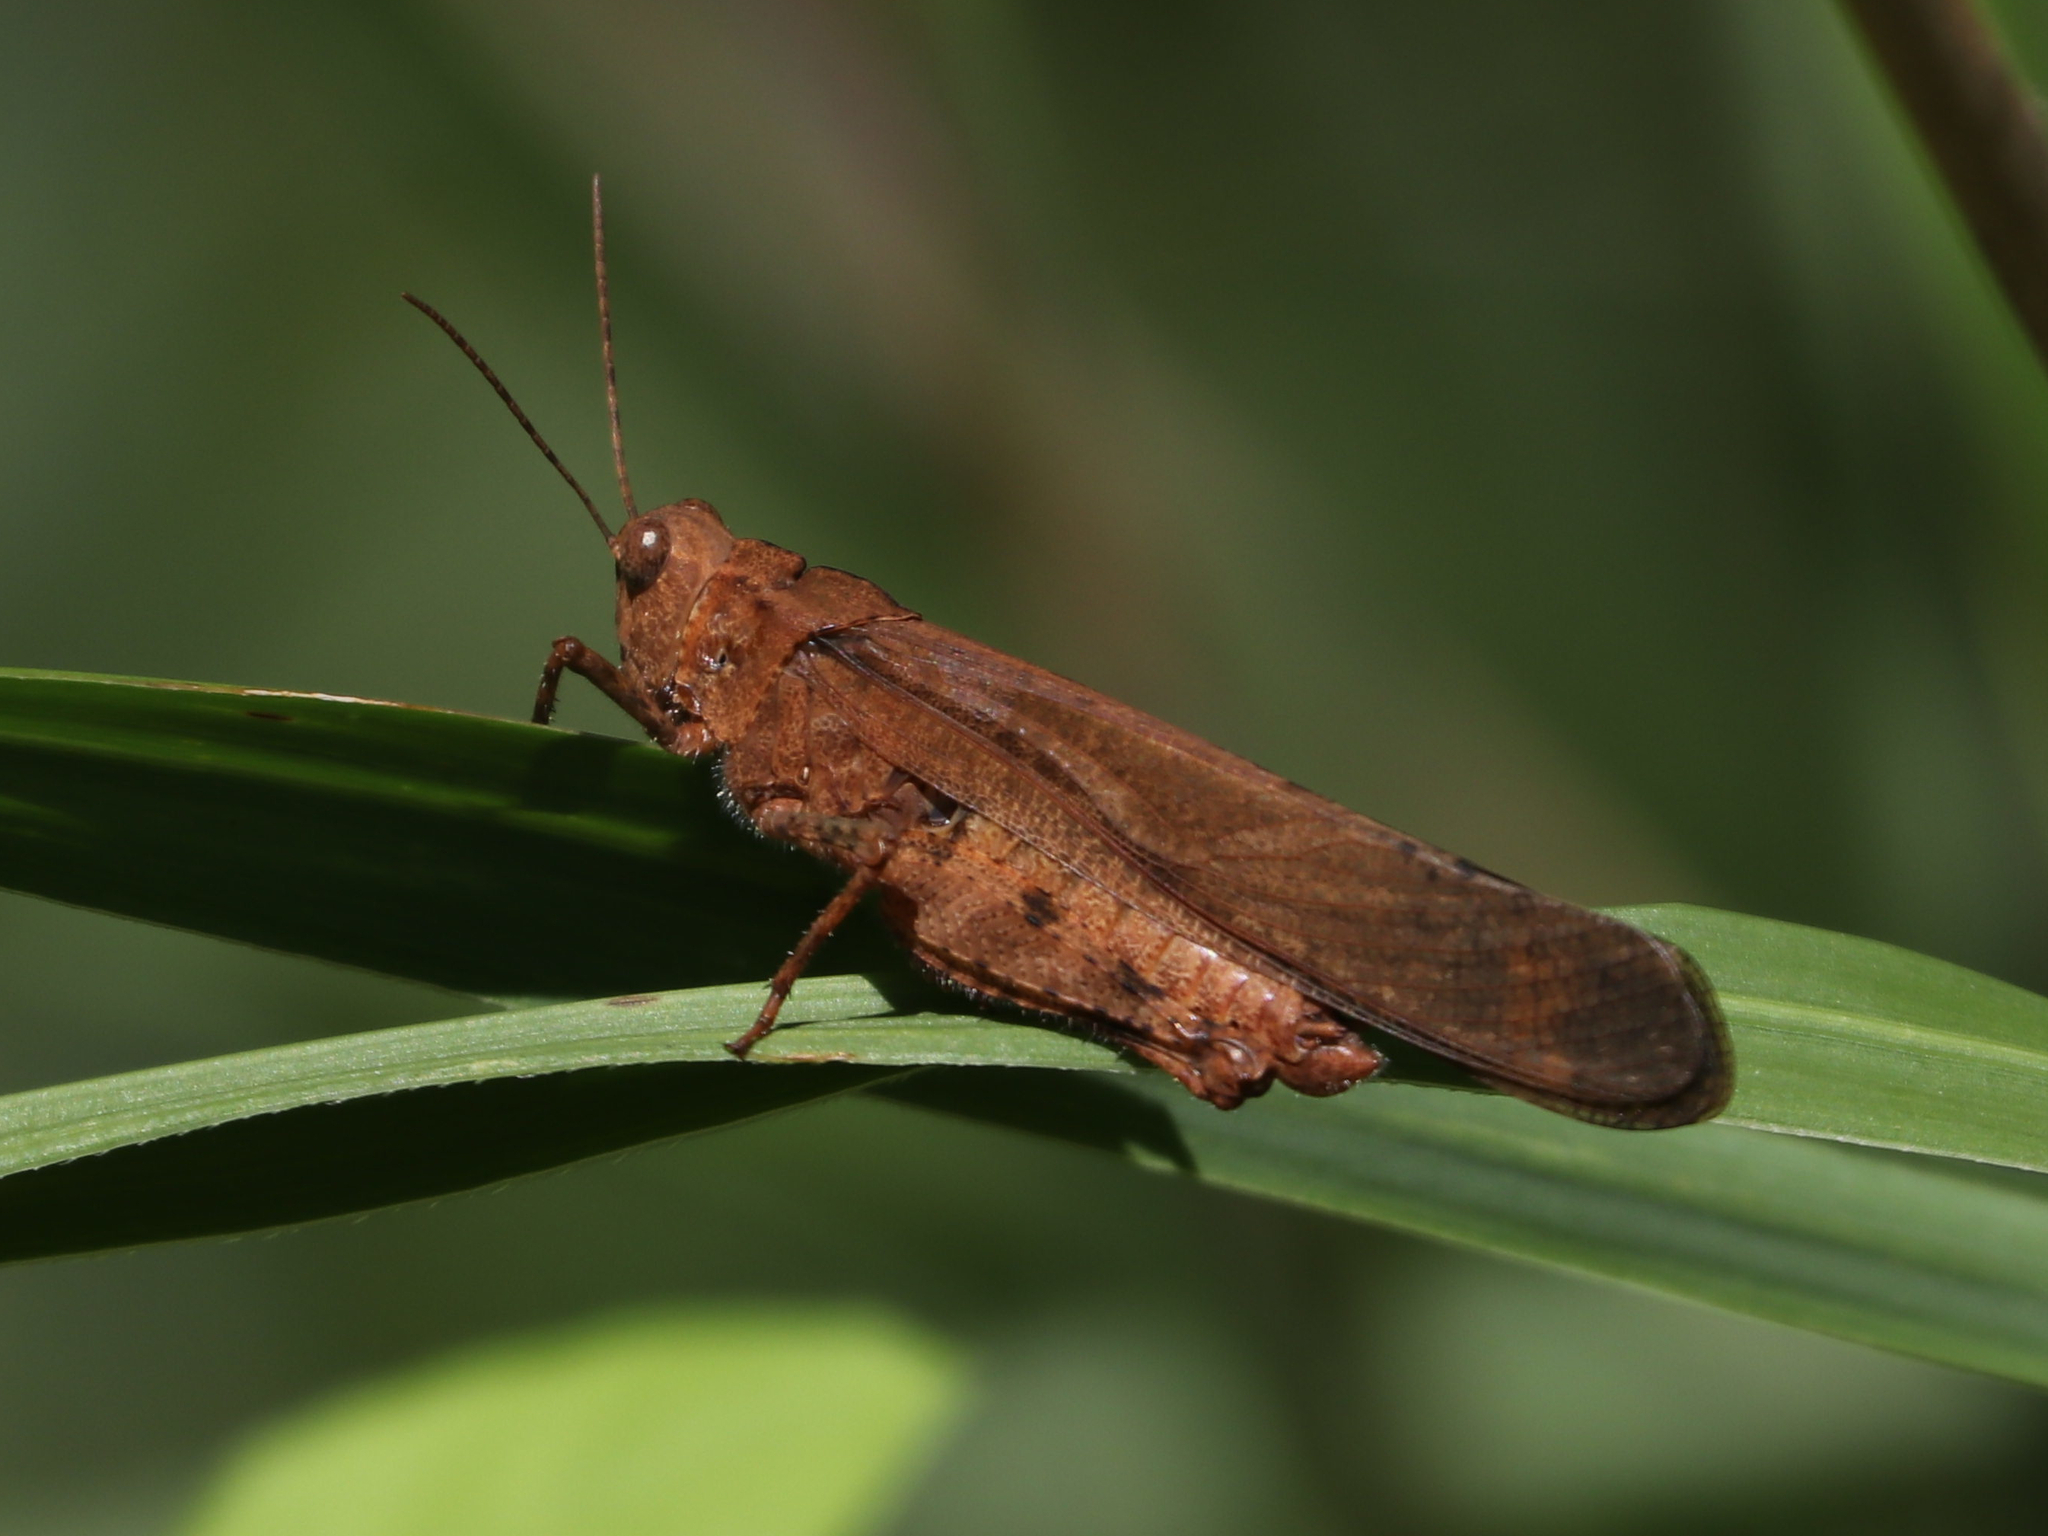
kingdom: Animalia
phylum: Arthropoda
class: Insecta
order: Orthoptera
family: Acrididae
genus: Dissosteira
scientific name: Dissosteira carolina
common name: Carolina grasshopper
